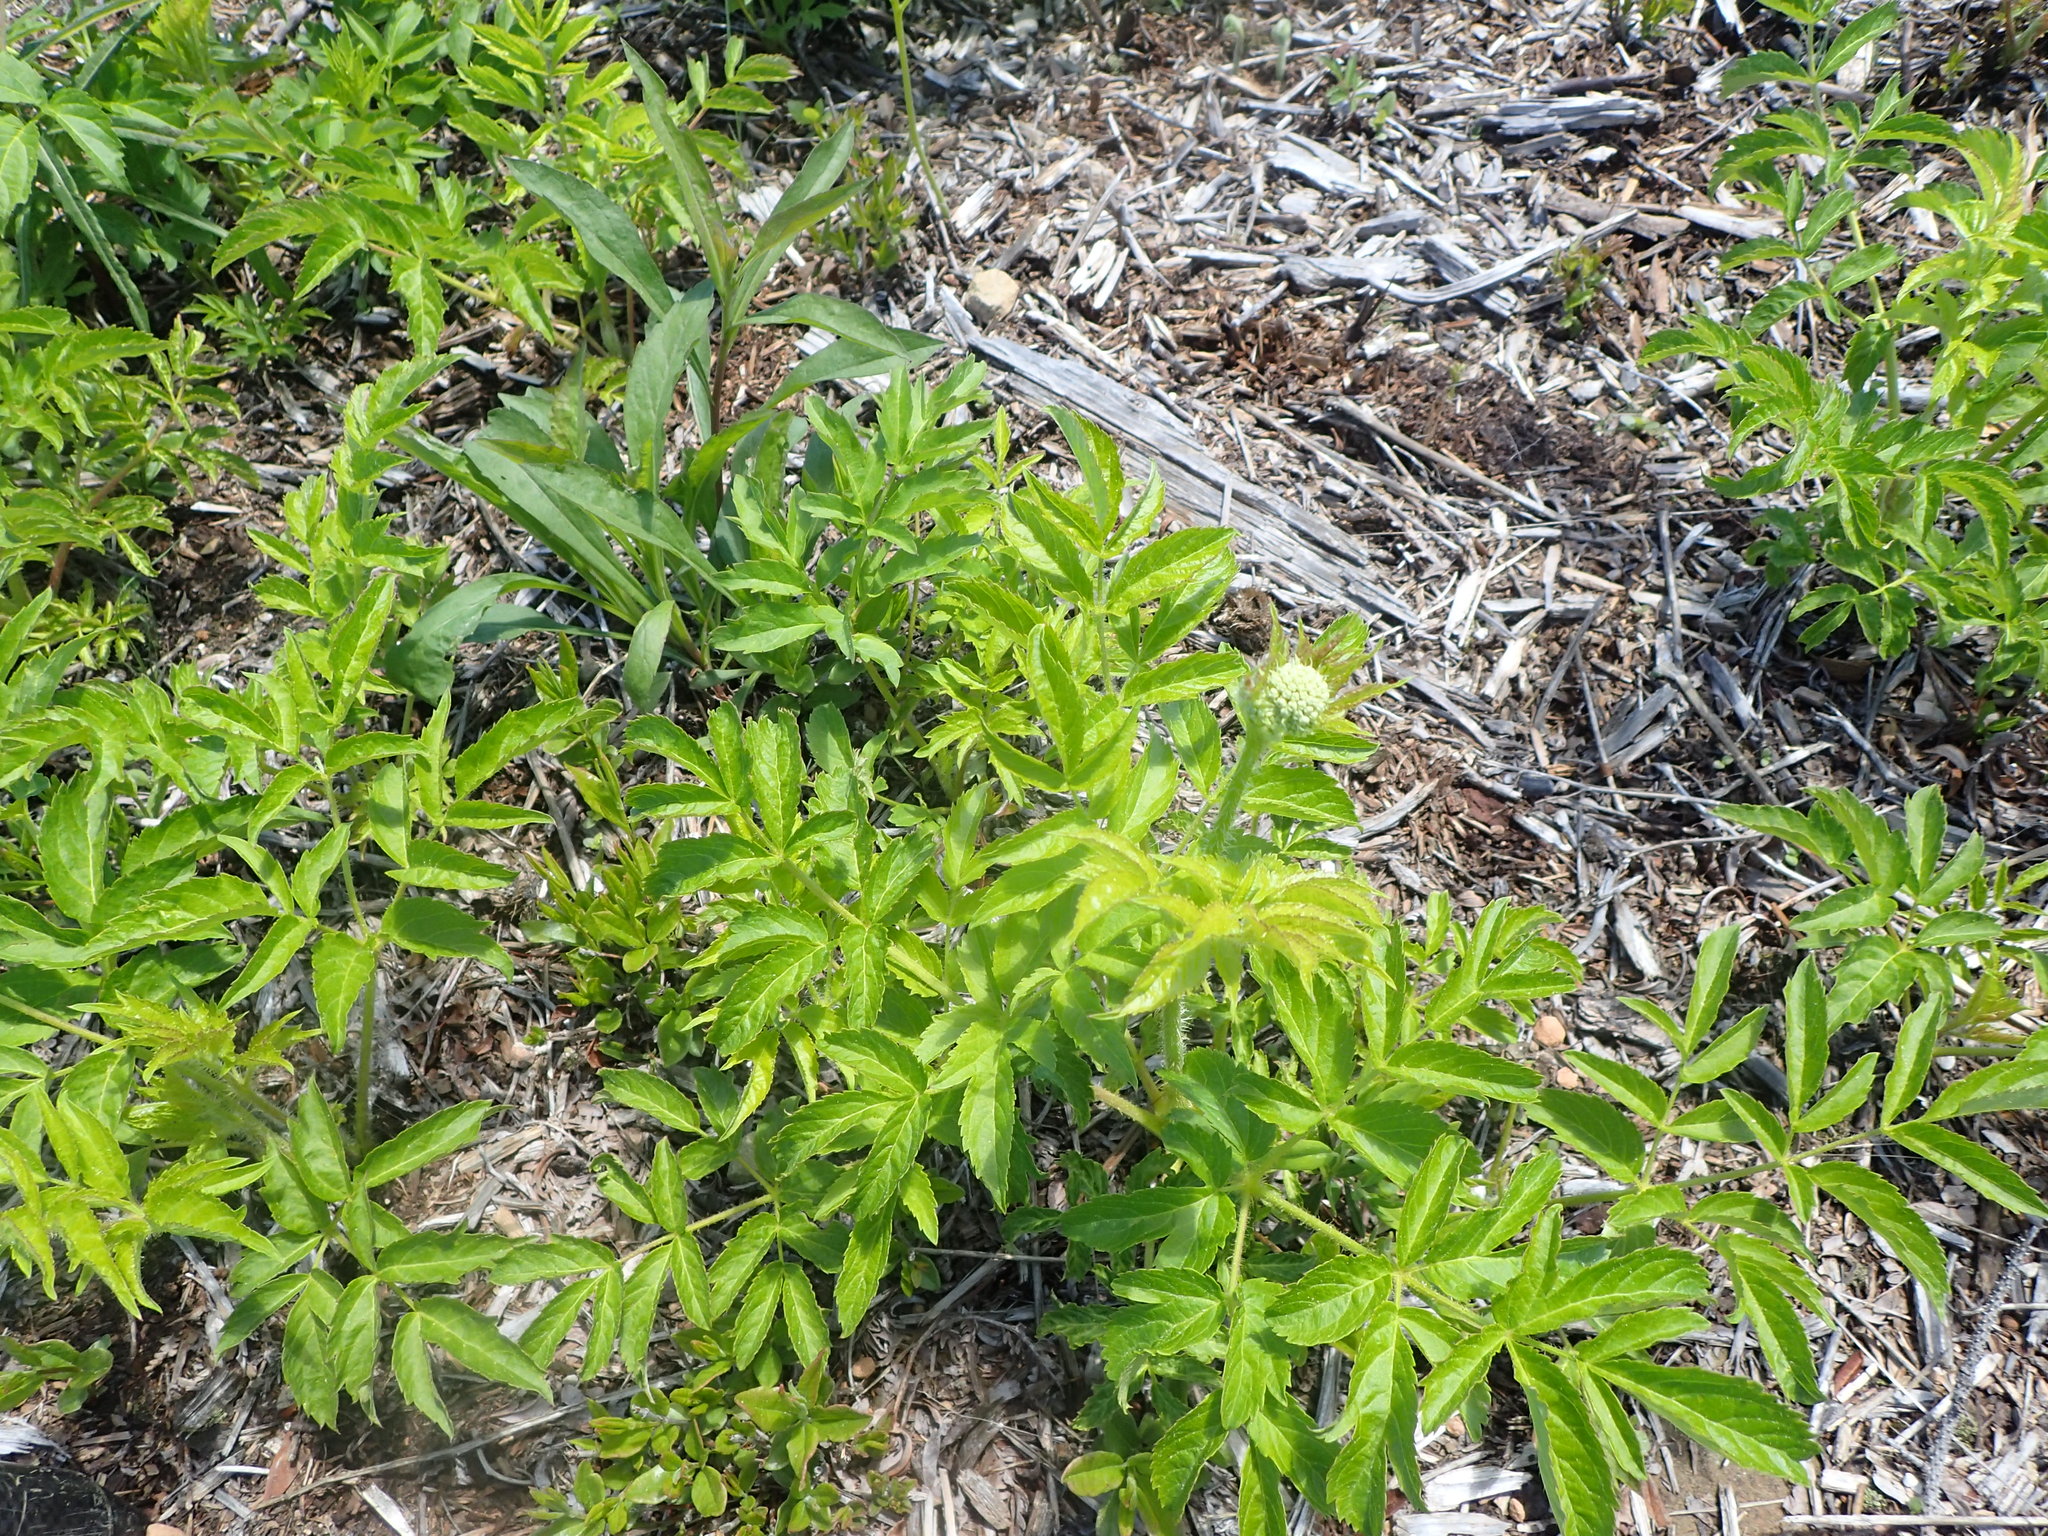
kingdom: Plantae
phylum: Tracheophyta
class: Magnoliopsida
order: Apiales
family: Araliaceae
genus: Aralia
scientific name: Aralia hispida
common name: Bristly sarsaparilla
